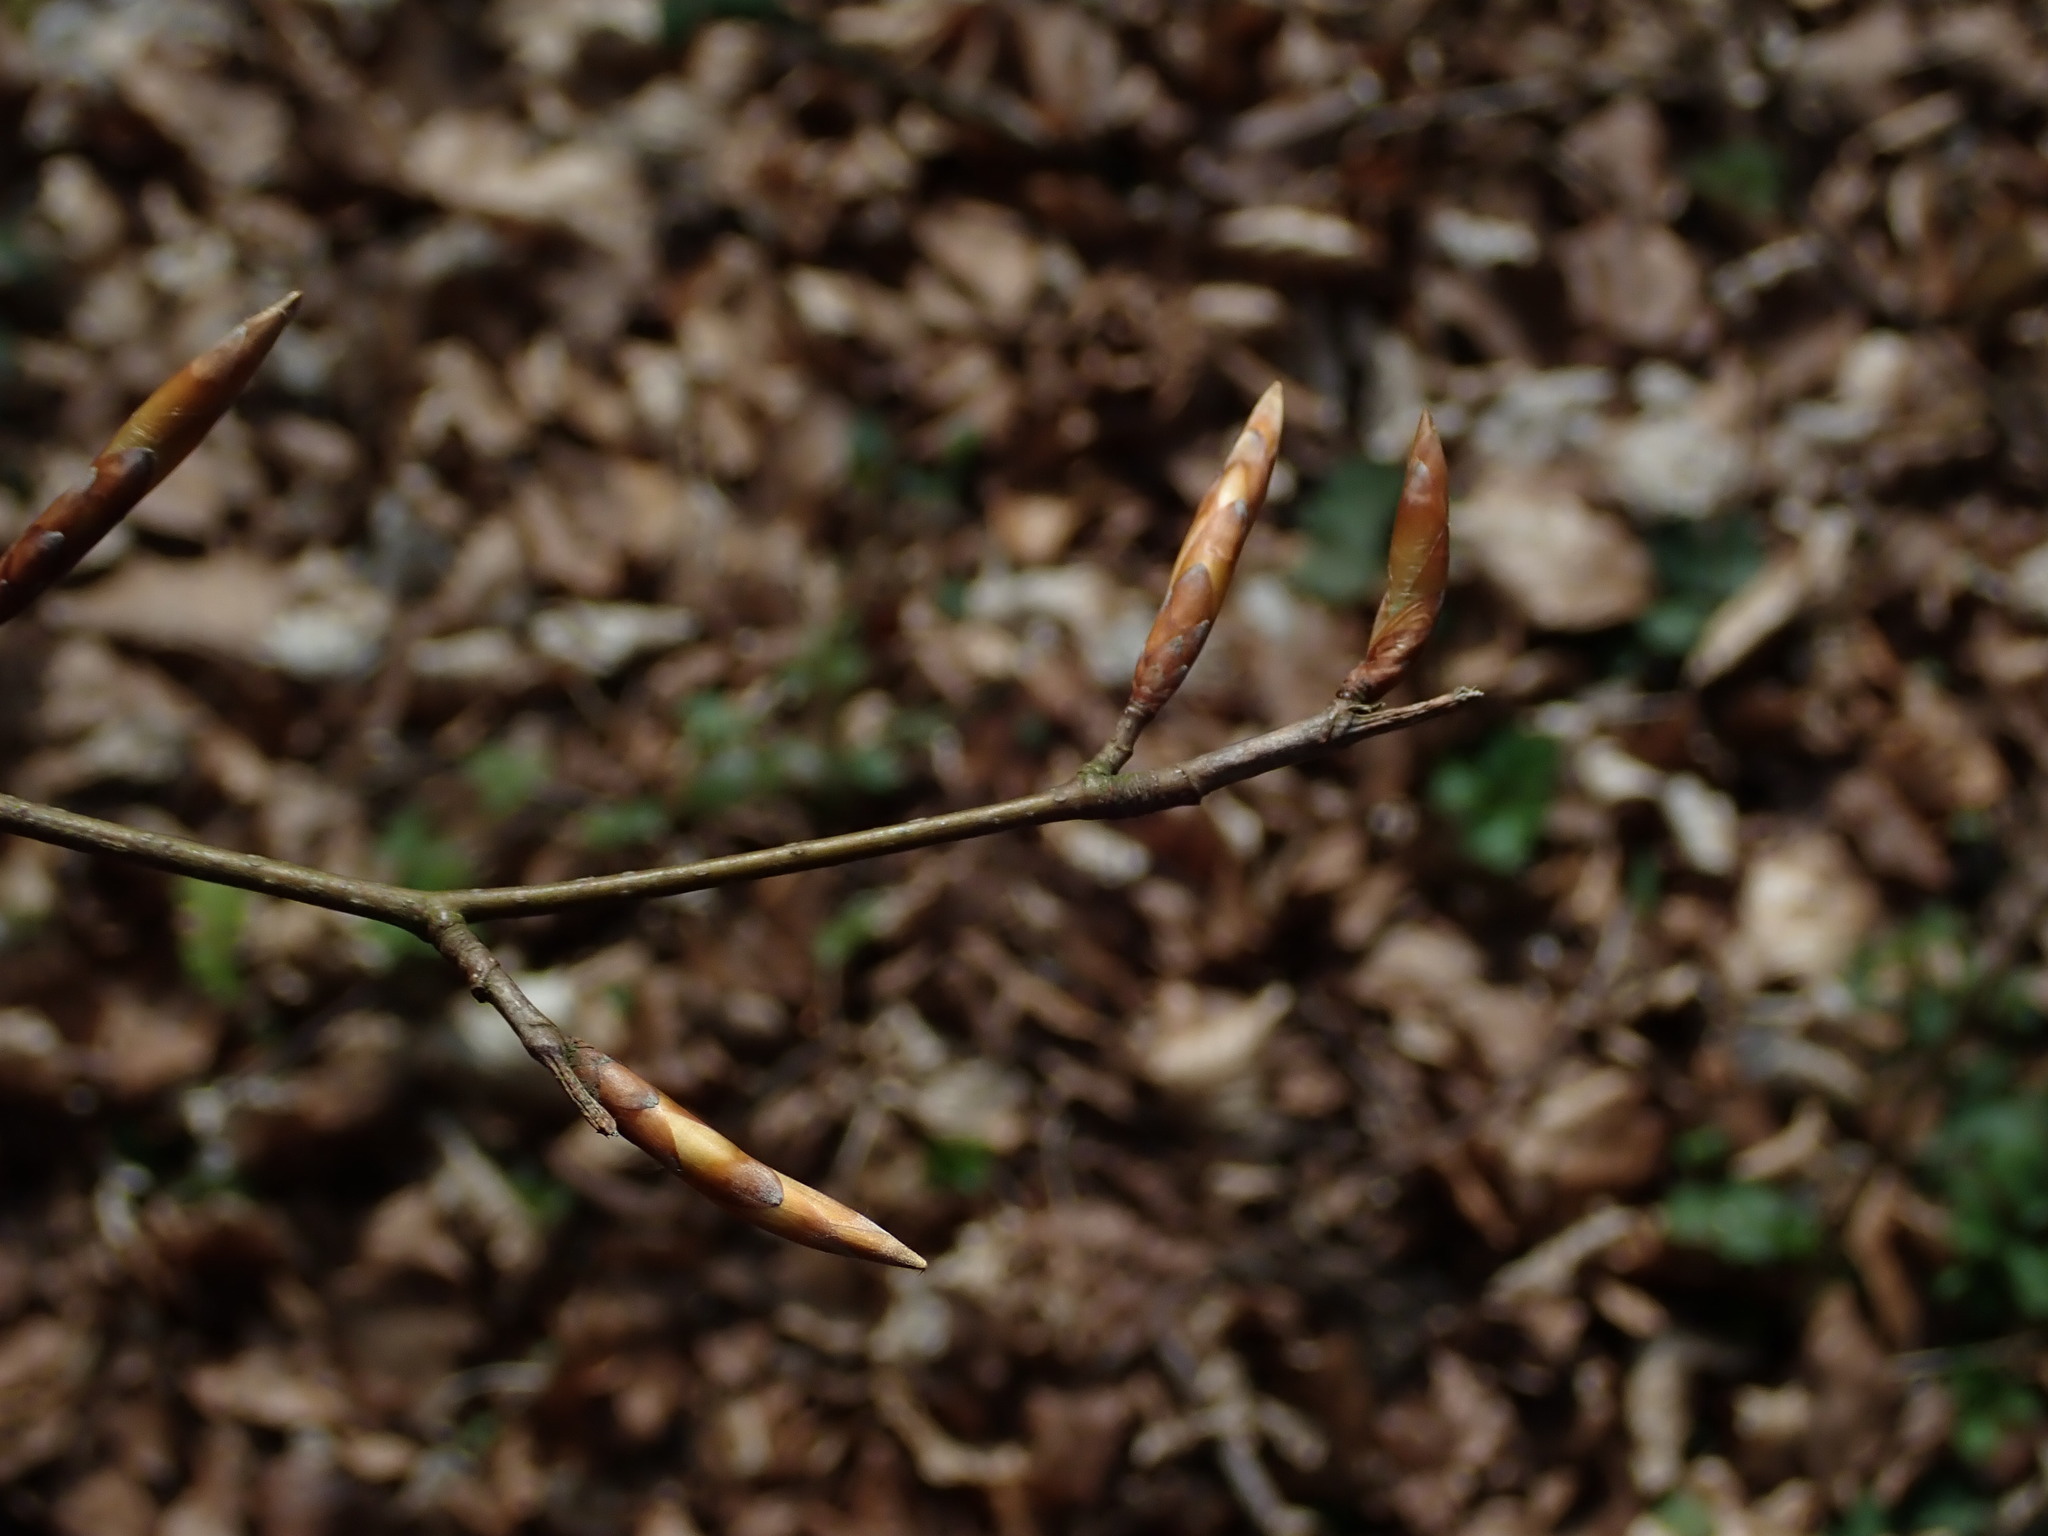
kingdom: Plantae
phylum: Tracheophyta
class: Magnoliopsida
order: Fagales
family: Fagaceae
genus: Fagus
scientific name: Fagus sylvatica
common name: Beech
